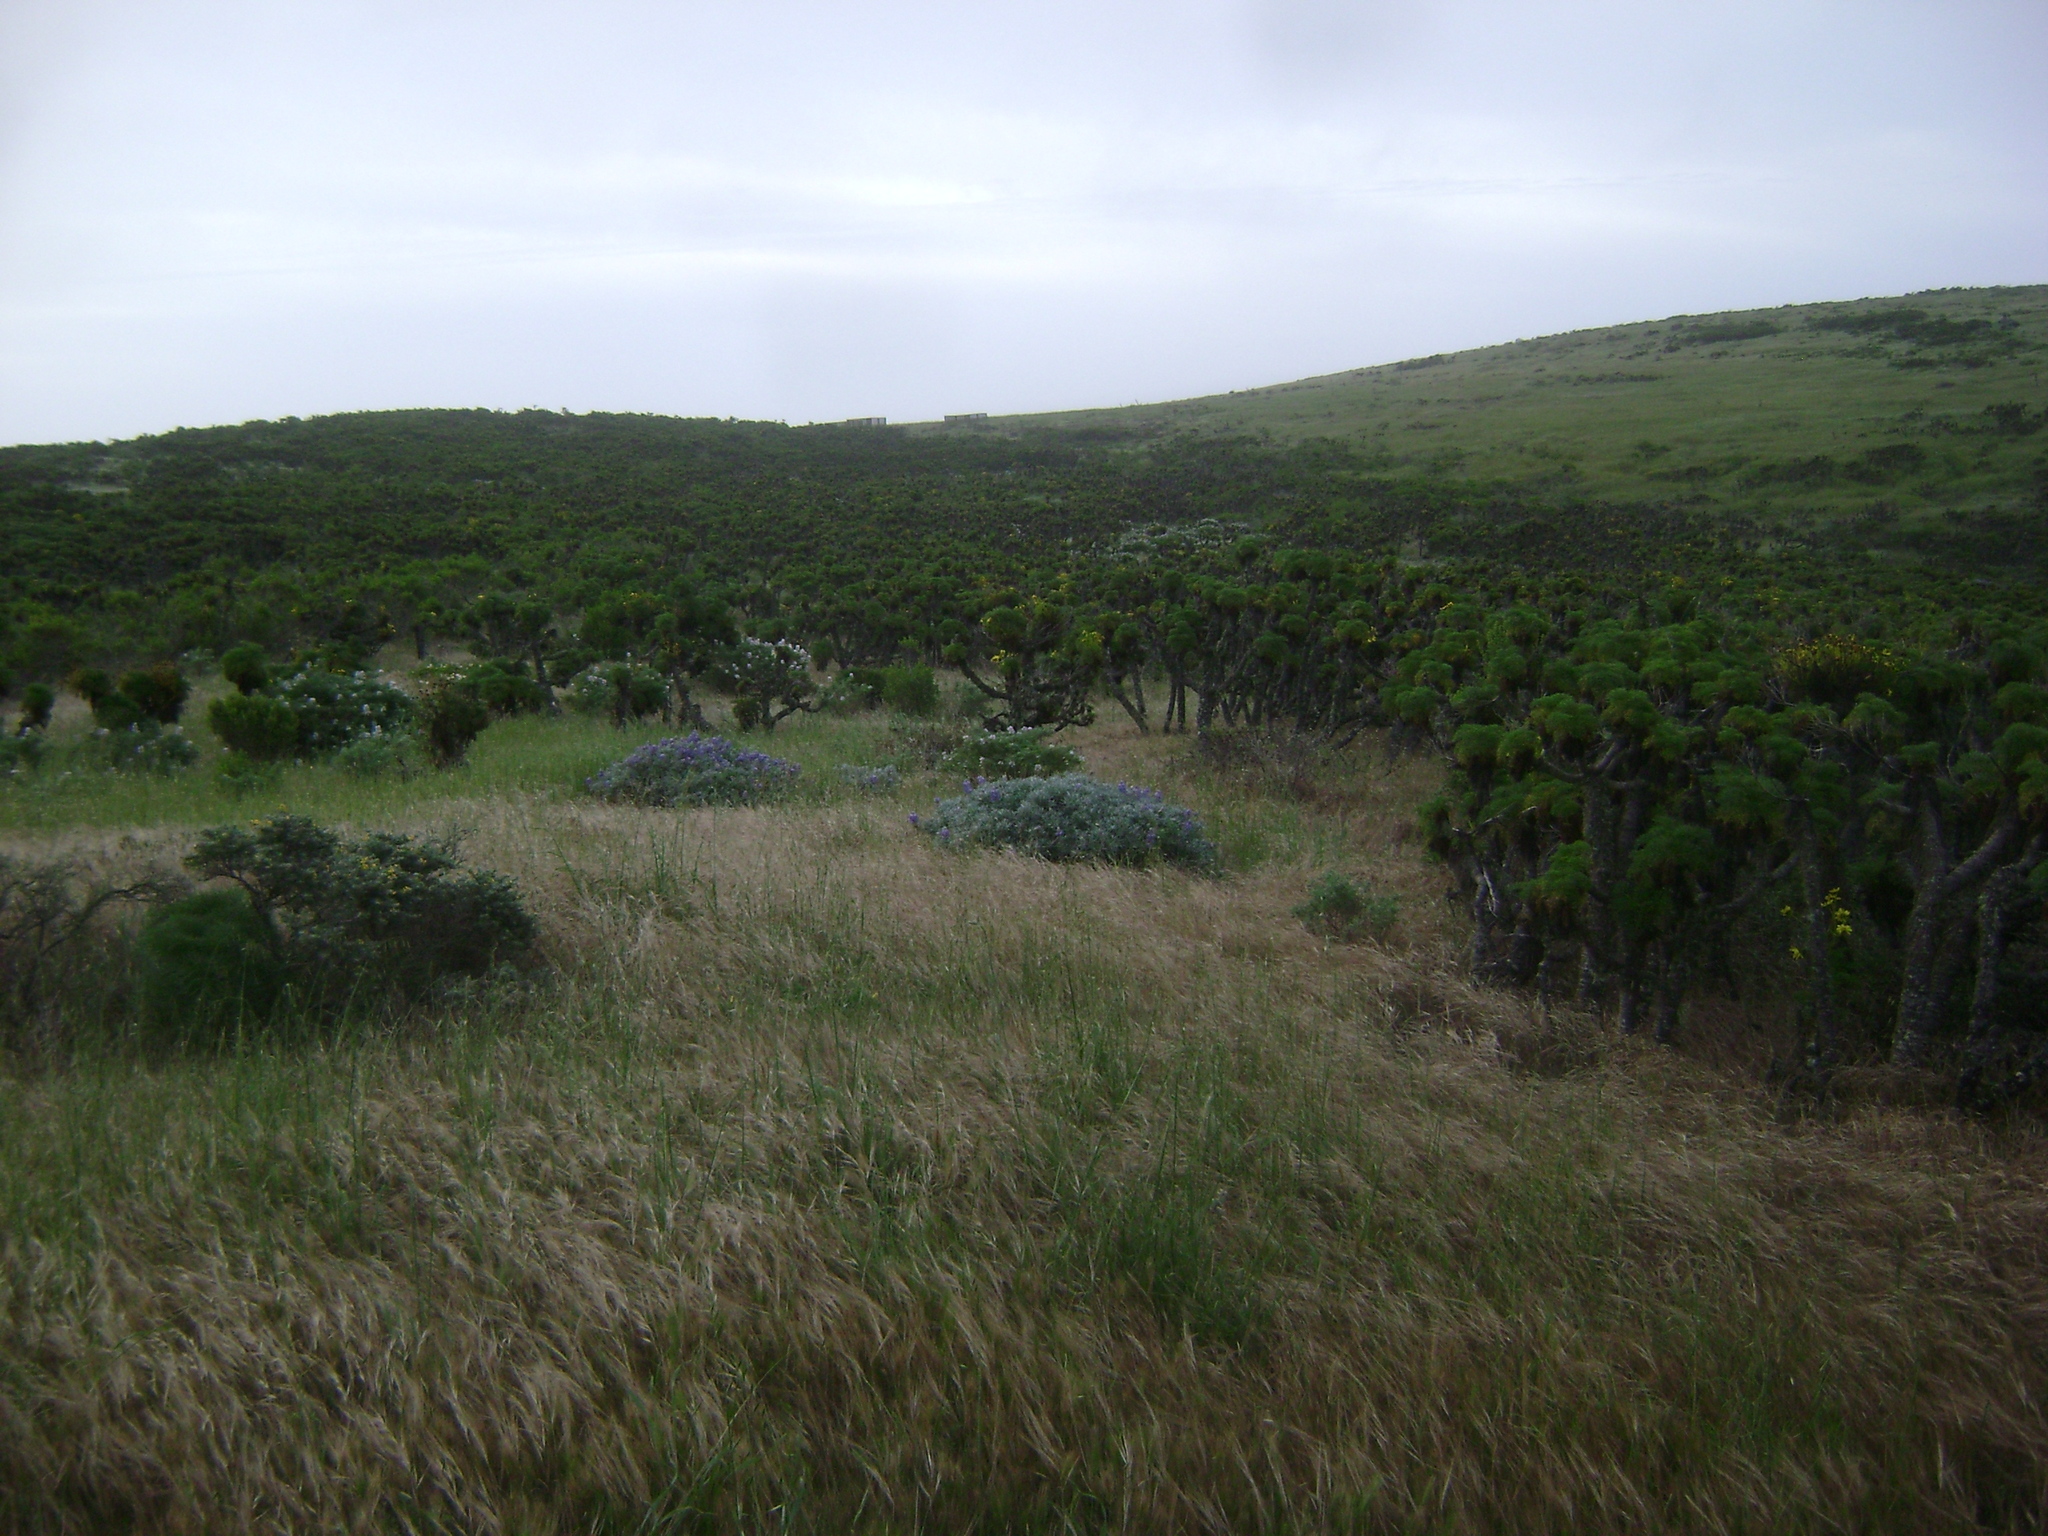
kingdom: Plantae
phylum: Tracheophyta
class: Magnoliopsida
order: Asterales
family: Asteraceae
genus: Coreopsis
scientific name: Coreopsis gigantea
